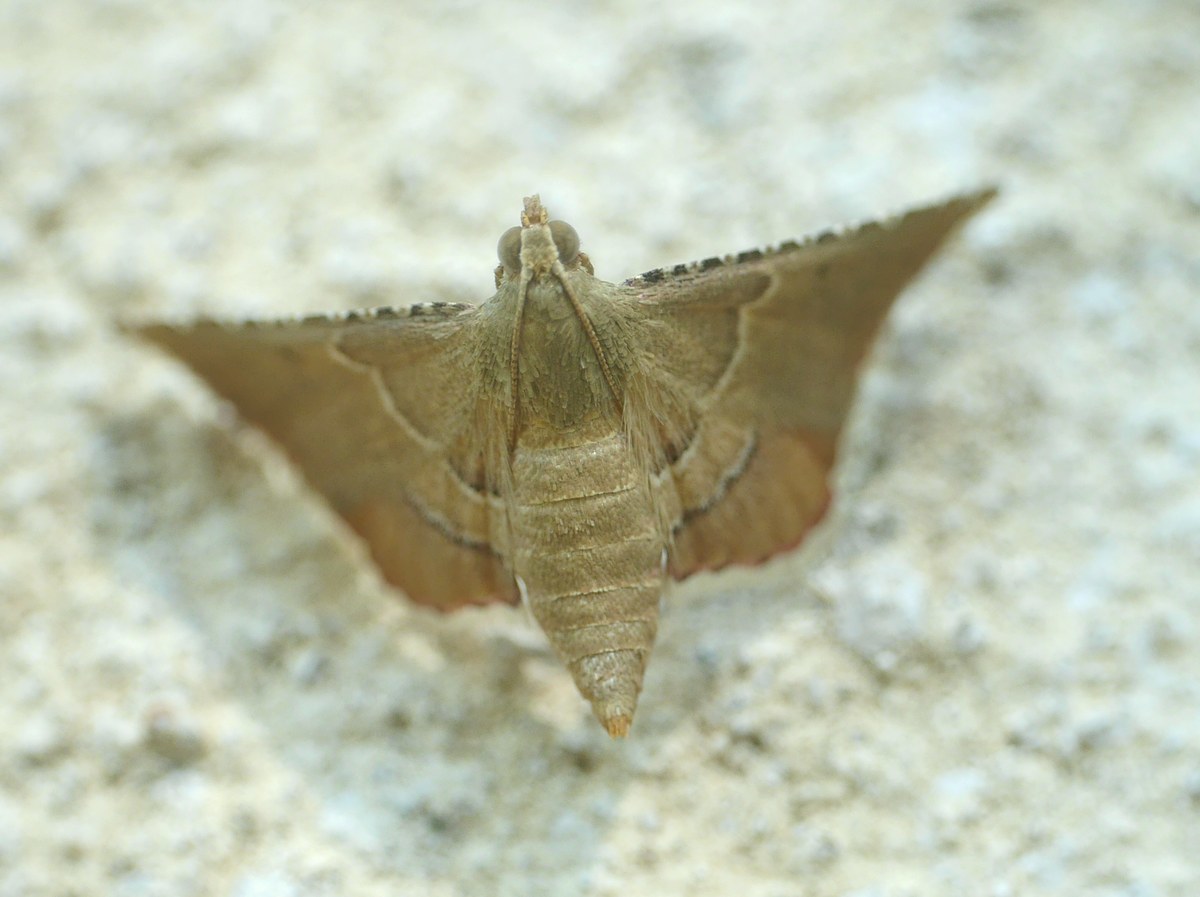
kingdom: Animalia
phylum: Arthropoda
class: Insecta
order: Lepidoptera
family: Pyralidae
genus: Endotricha
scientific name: Endotricha flammealis
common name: Rosy tabby
